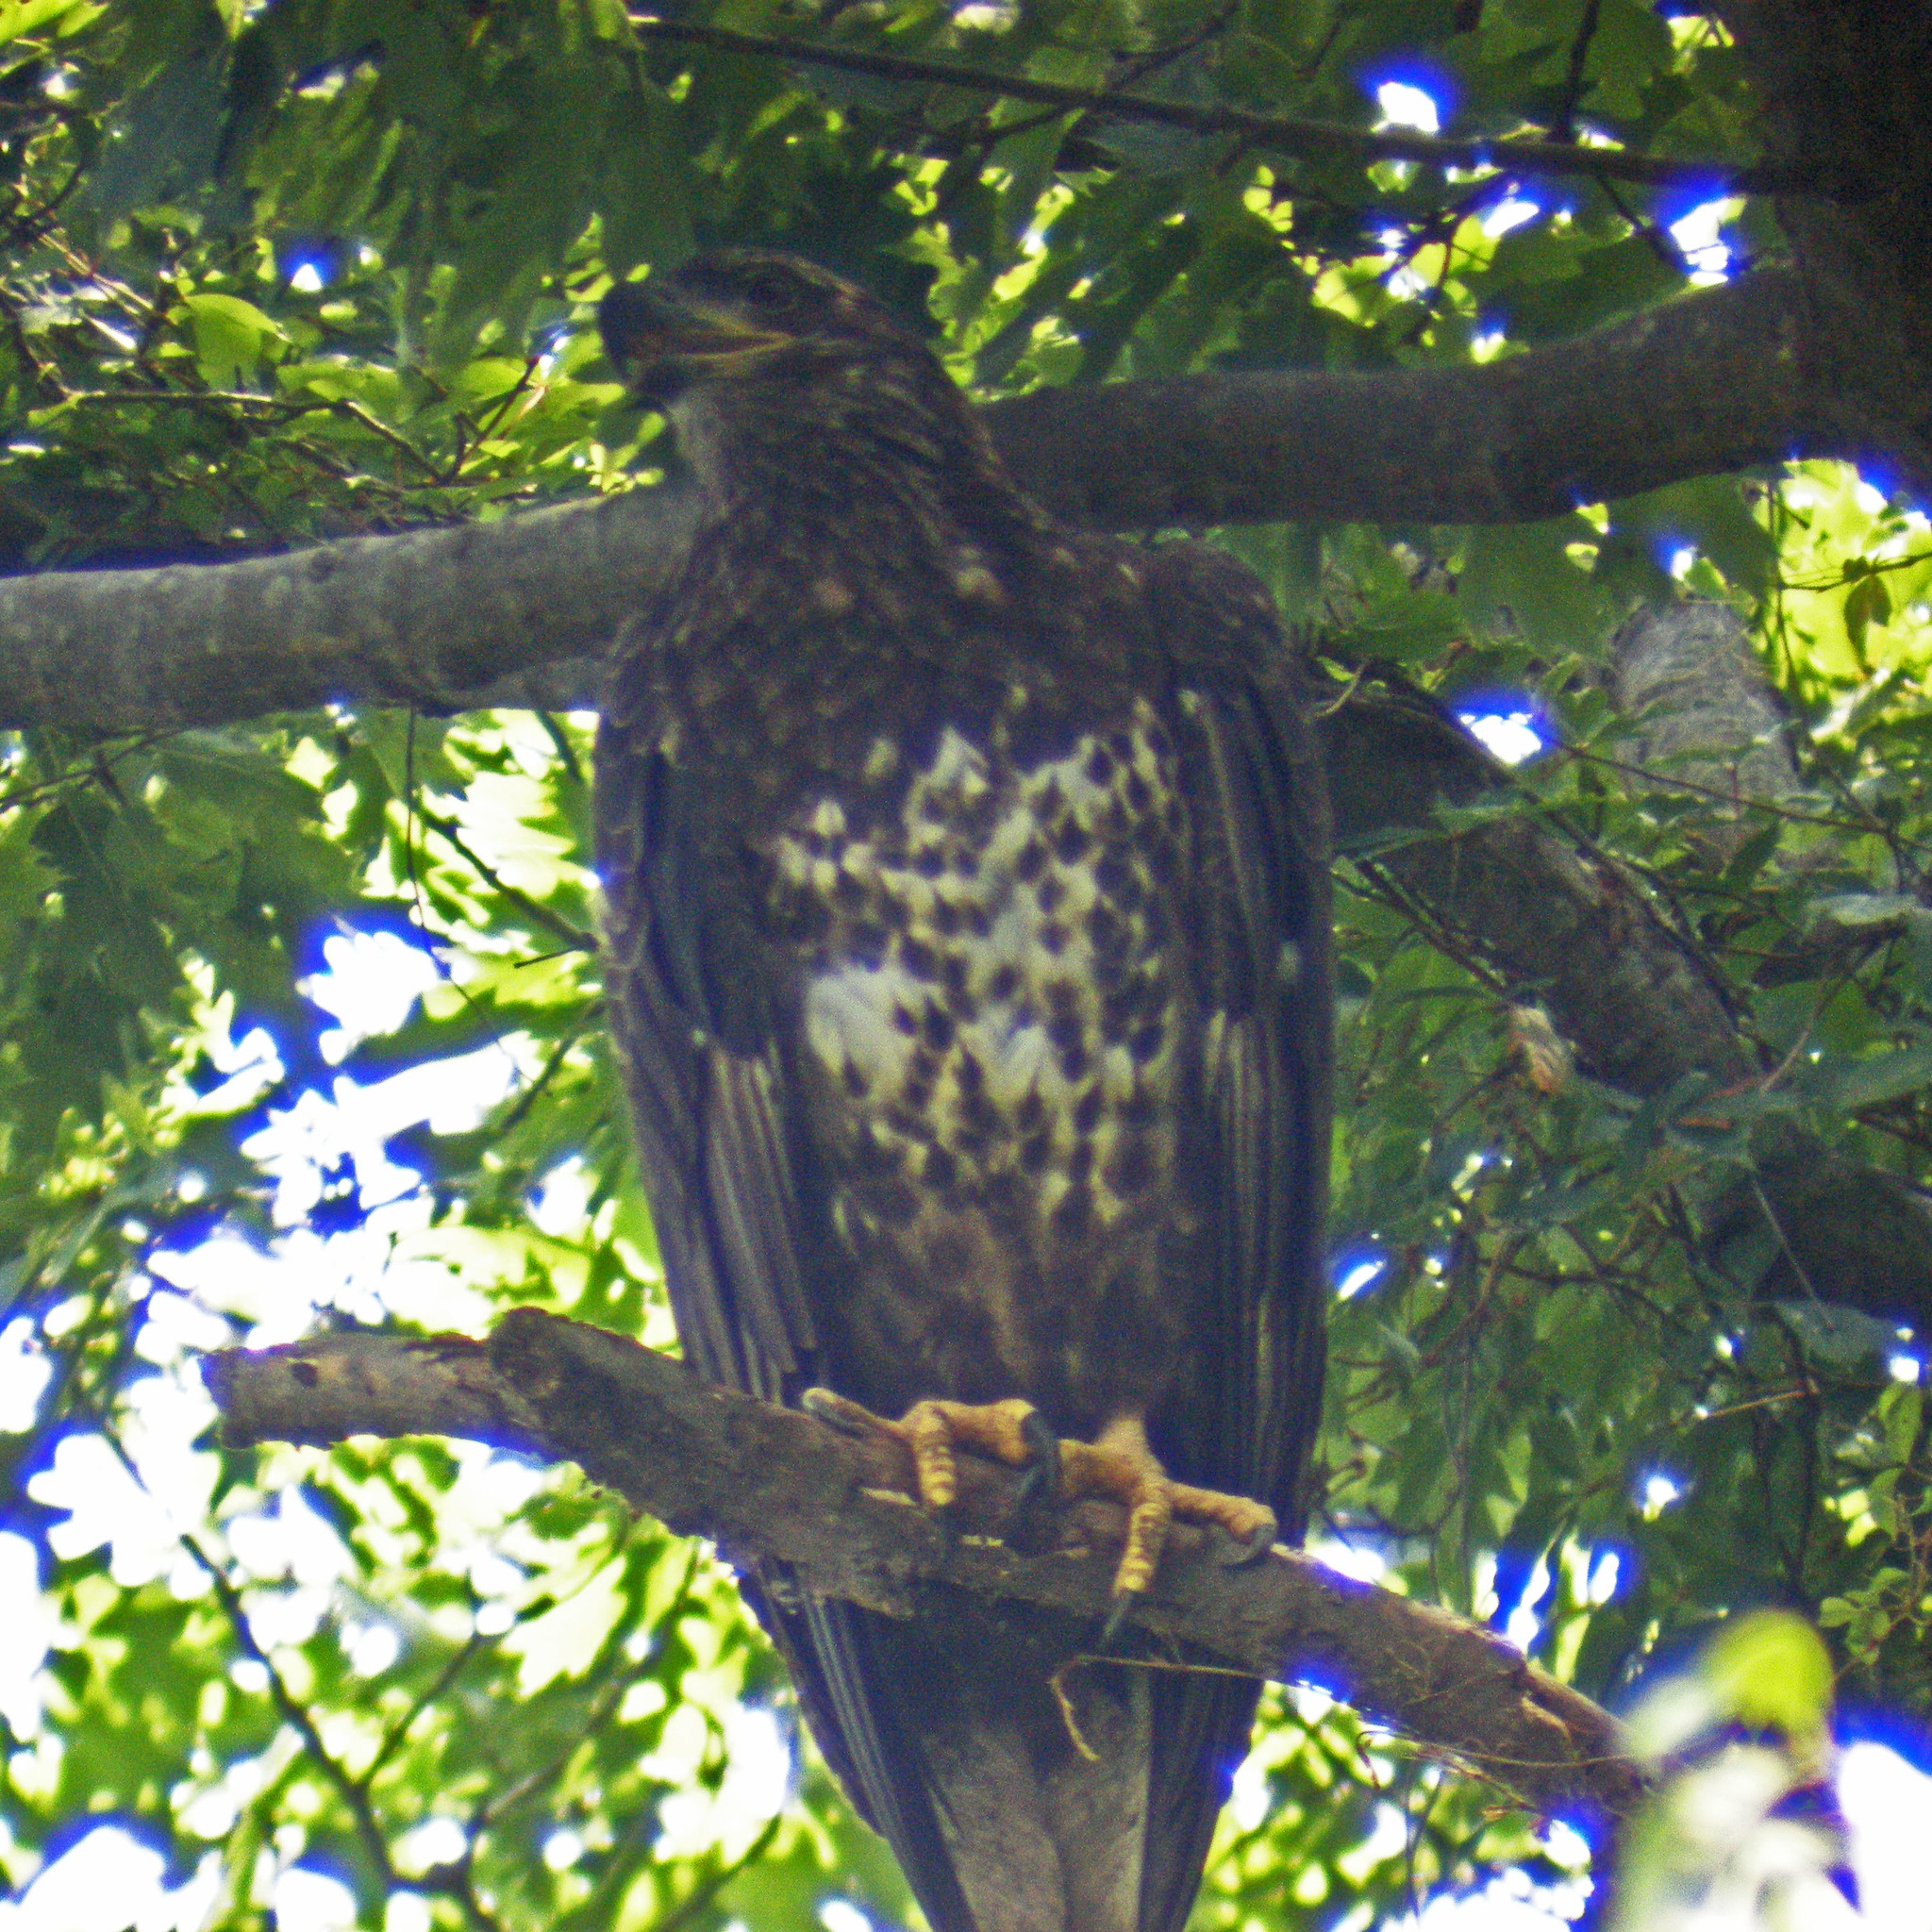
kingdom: Animalia
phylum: Chordata
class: Aves
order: Accipitriformes
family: Accipitridae
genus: Haliaeetus
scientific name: Haliaeetus leucocephalus
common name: Bald eagle
